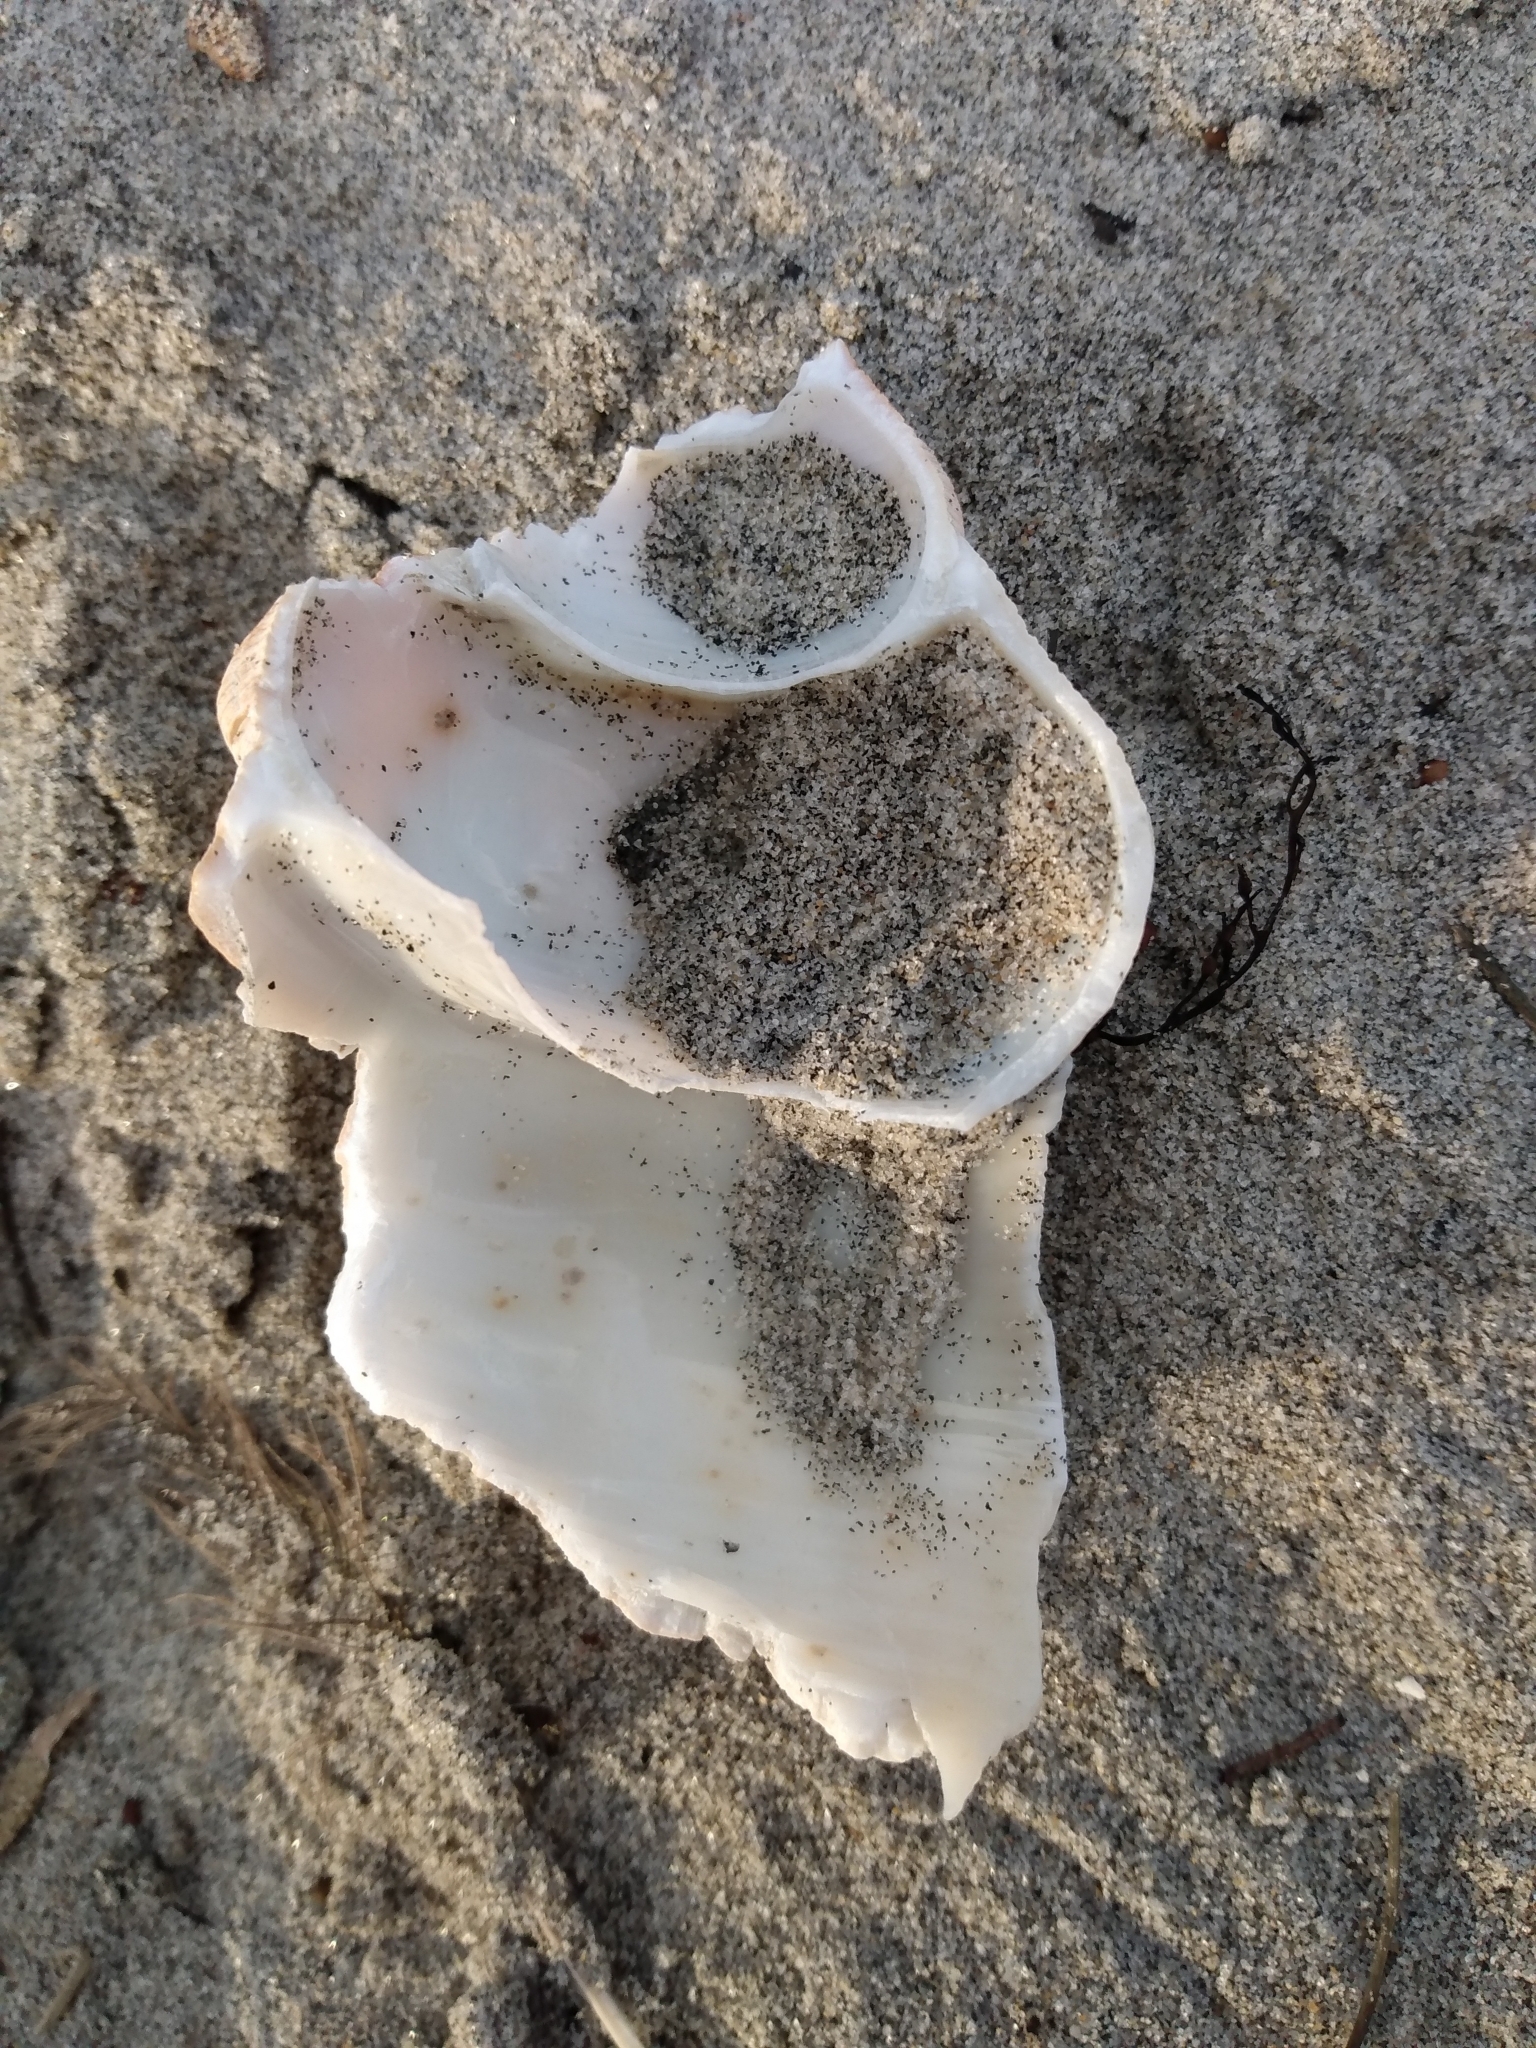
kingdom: Animalia
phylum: Mollusca
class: Gastropoda
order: Neogastropoda
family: Austrosiphonidae
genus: Kelletia
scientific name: Kelletia kelletii
